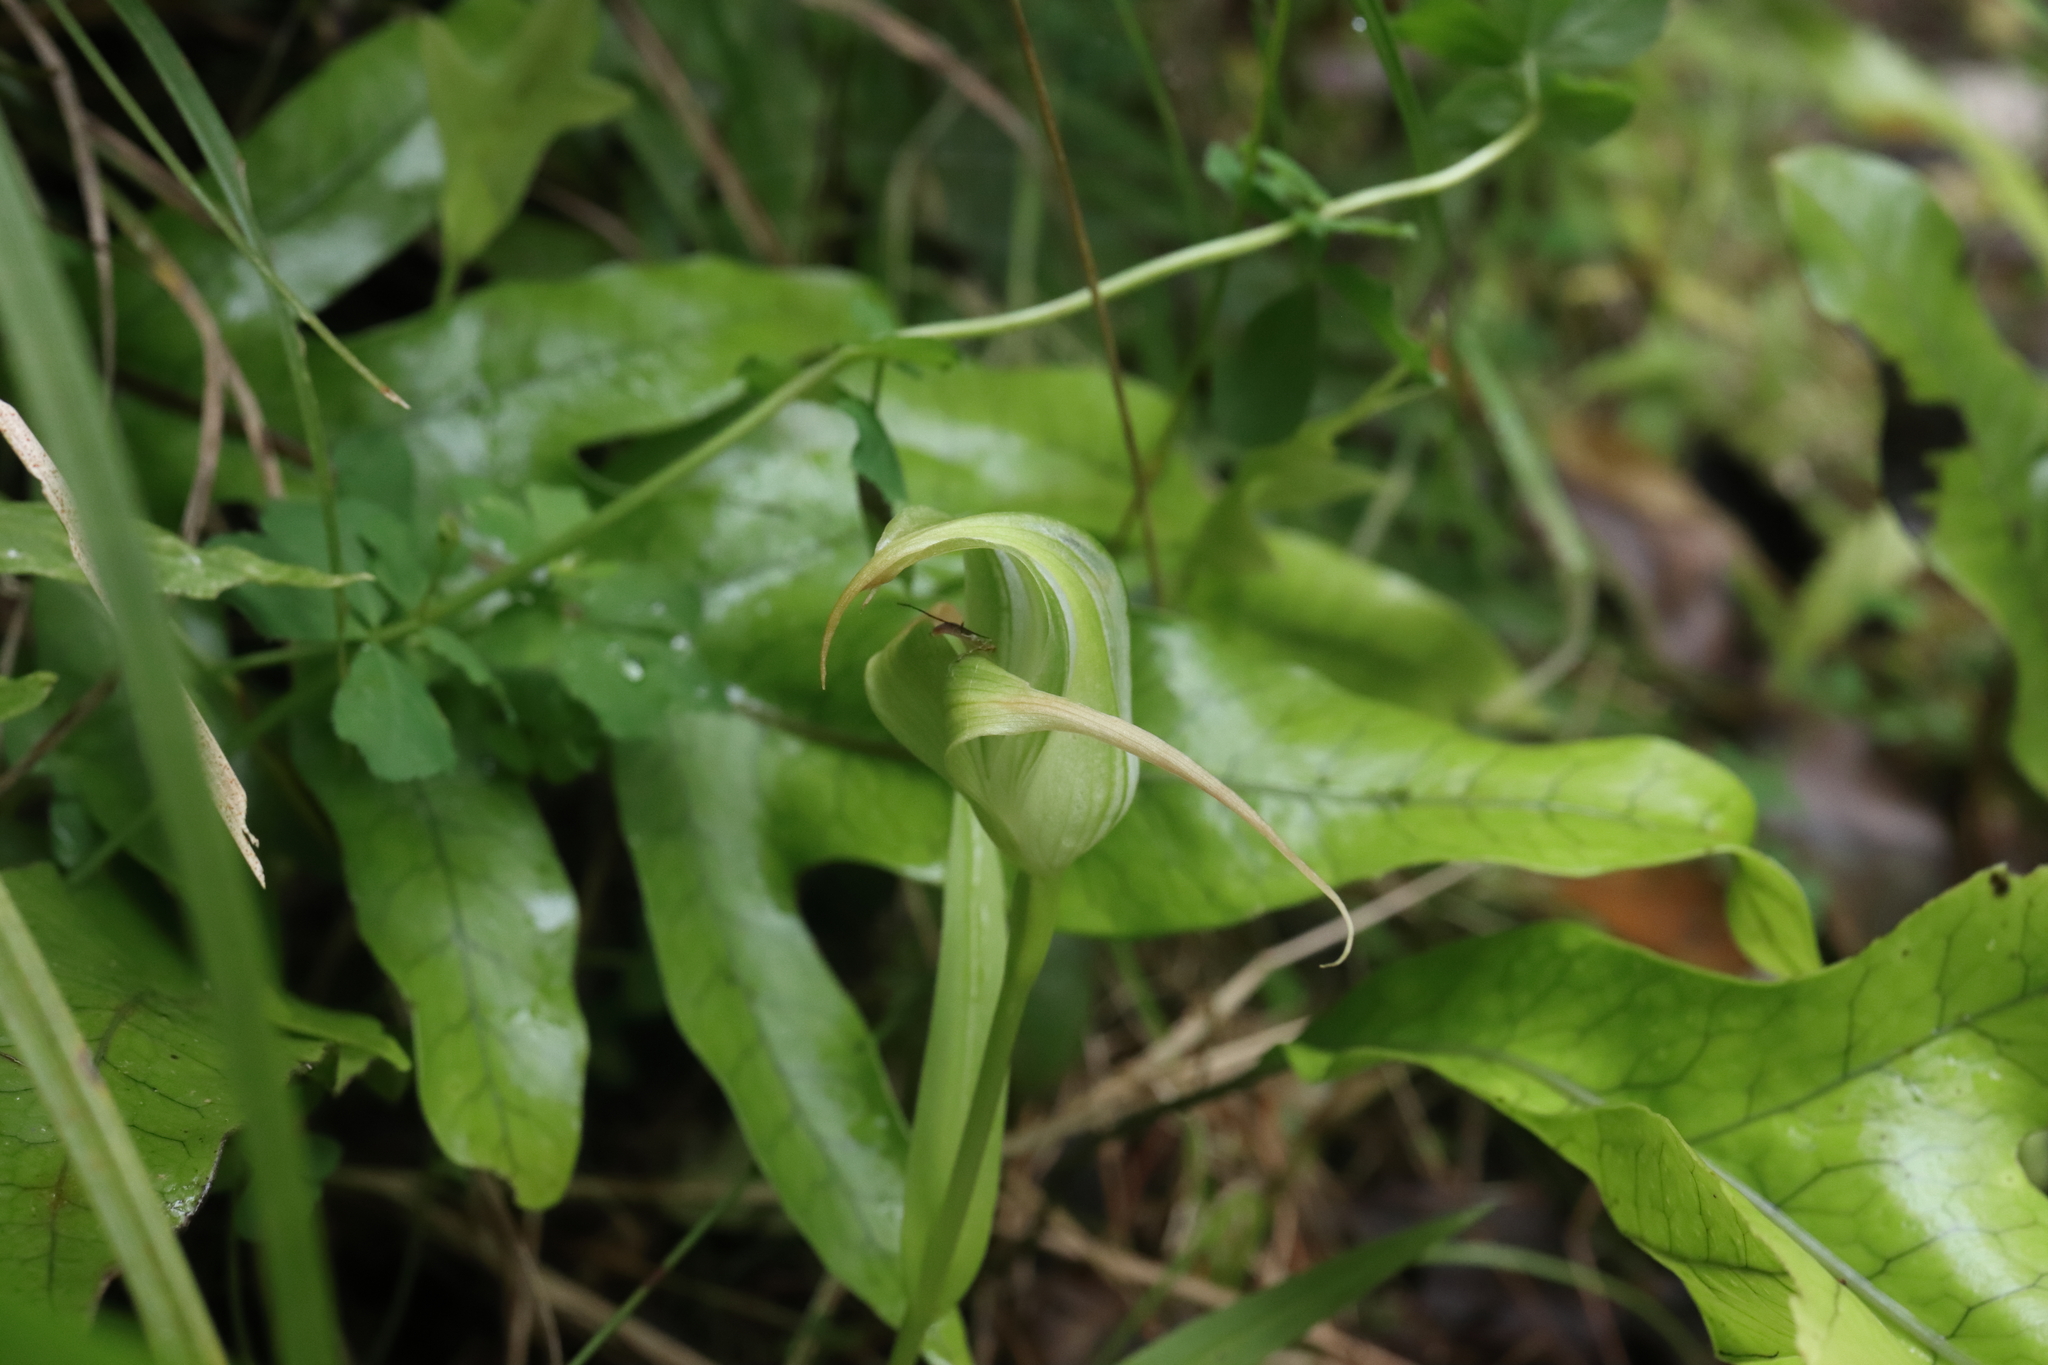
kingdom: Plantae
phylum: Tracheophyta
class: Liliopsida
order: Asparagales
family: Orchidaceae
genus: Pterostylis
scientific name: Pterostylis patens
